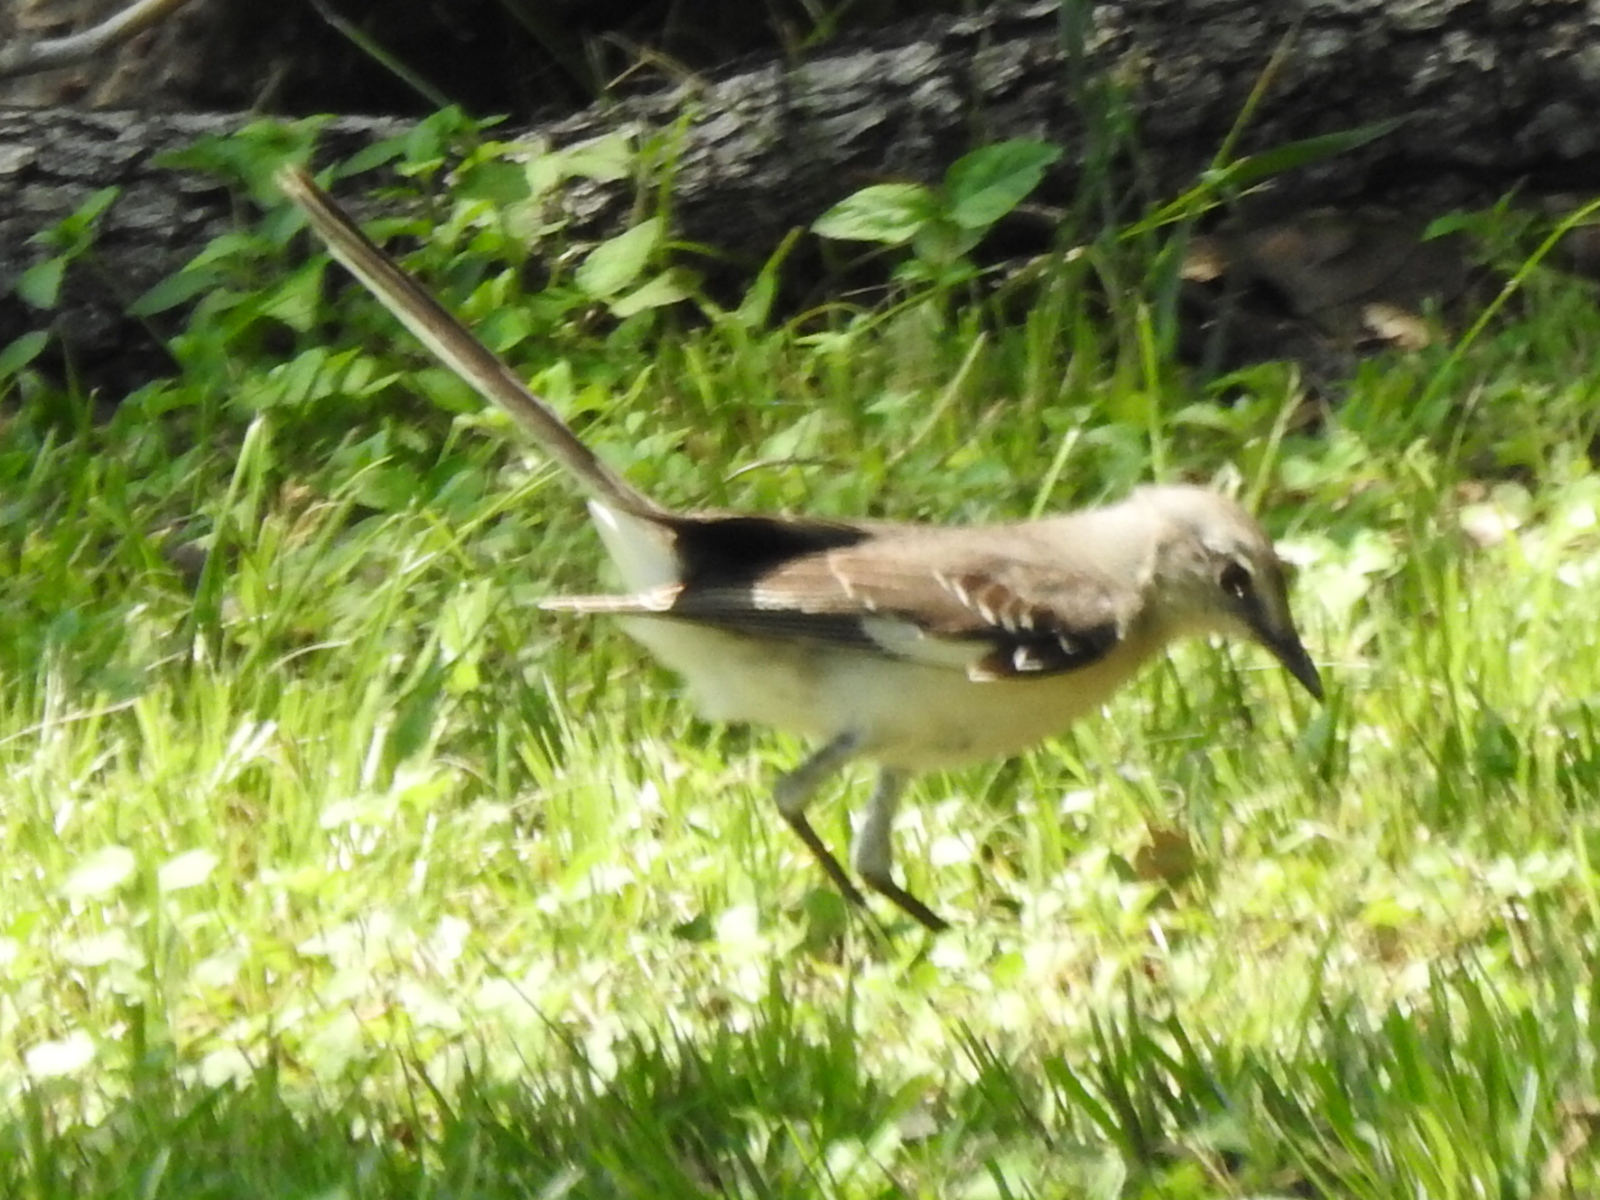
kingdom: Animalia
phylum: Chordata
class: Aves
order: Passeriformes
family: Mimidae
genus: Mimus
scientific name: Mimus polyglottos
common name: Northern mockingbird
